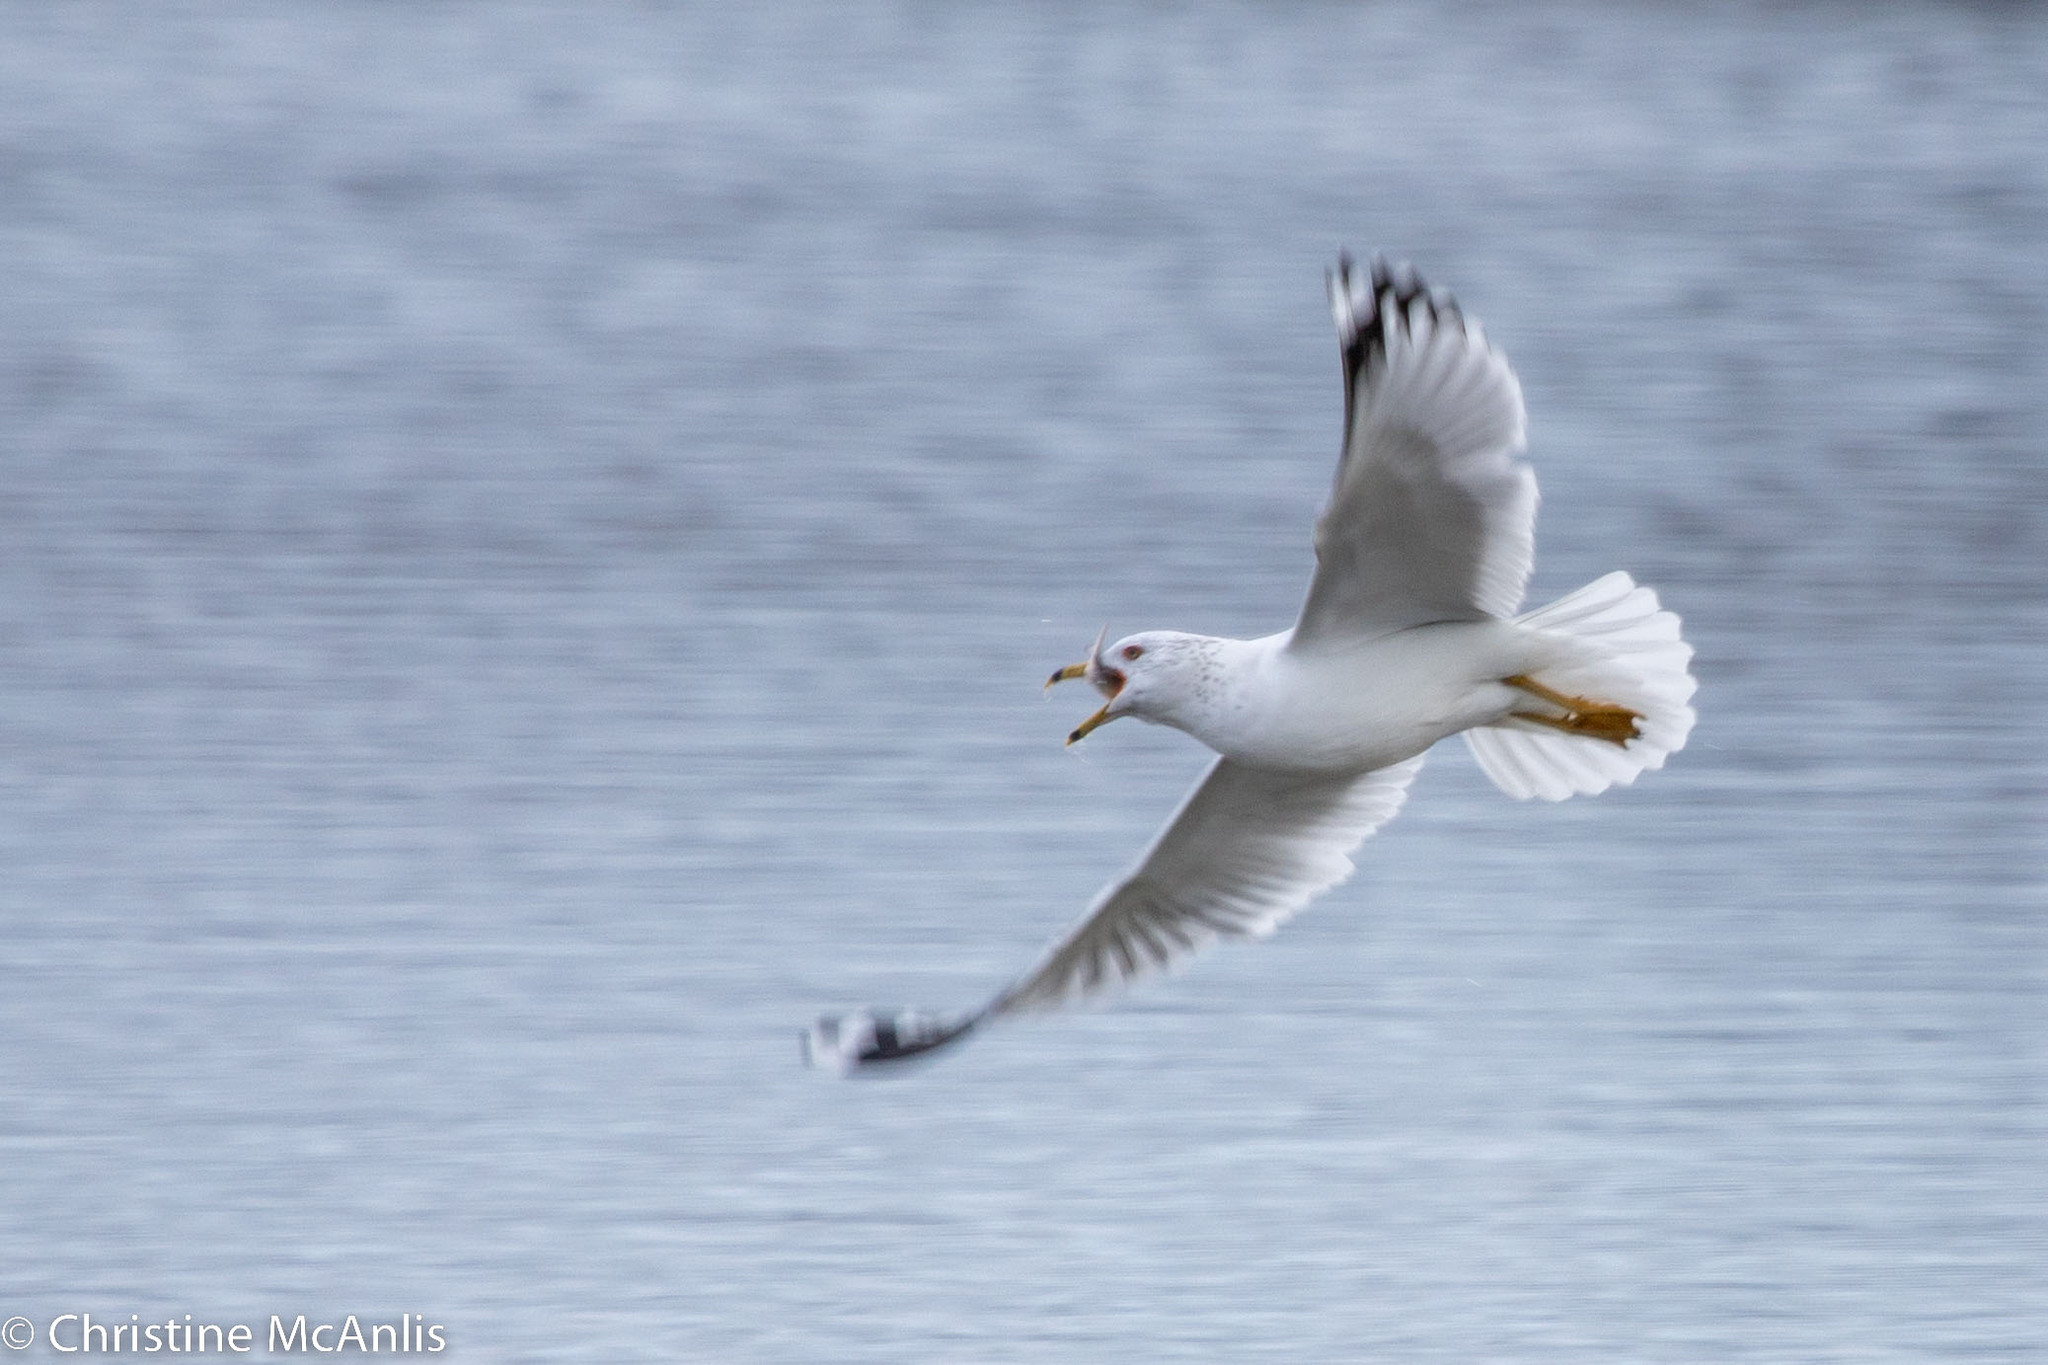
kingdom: Animalia
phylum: Chordata
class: Aves
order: Charadriiformes
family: Laridae
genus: Larus
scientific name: Larus delawarensis
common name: Ring-billed gull
